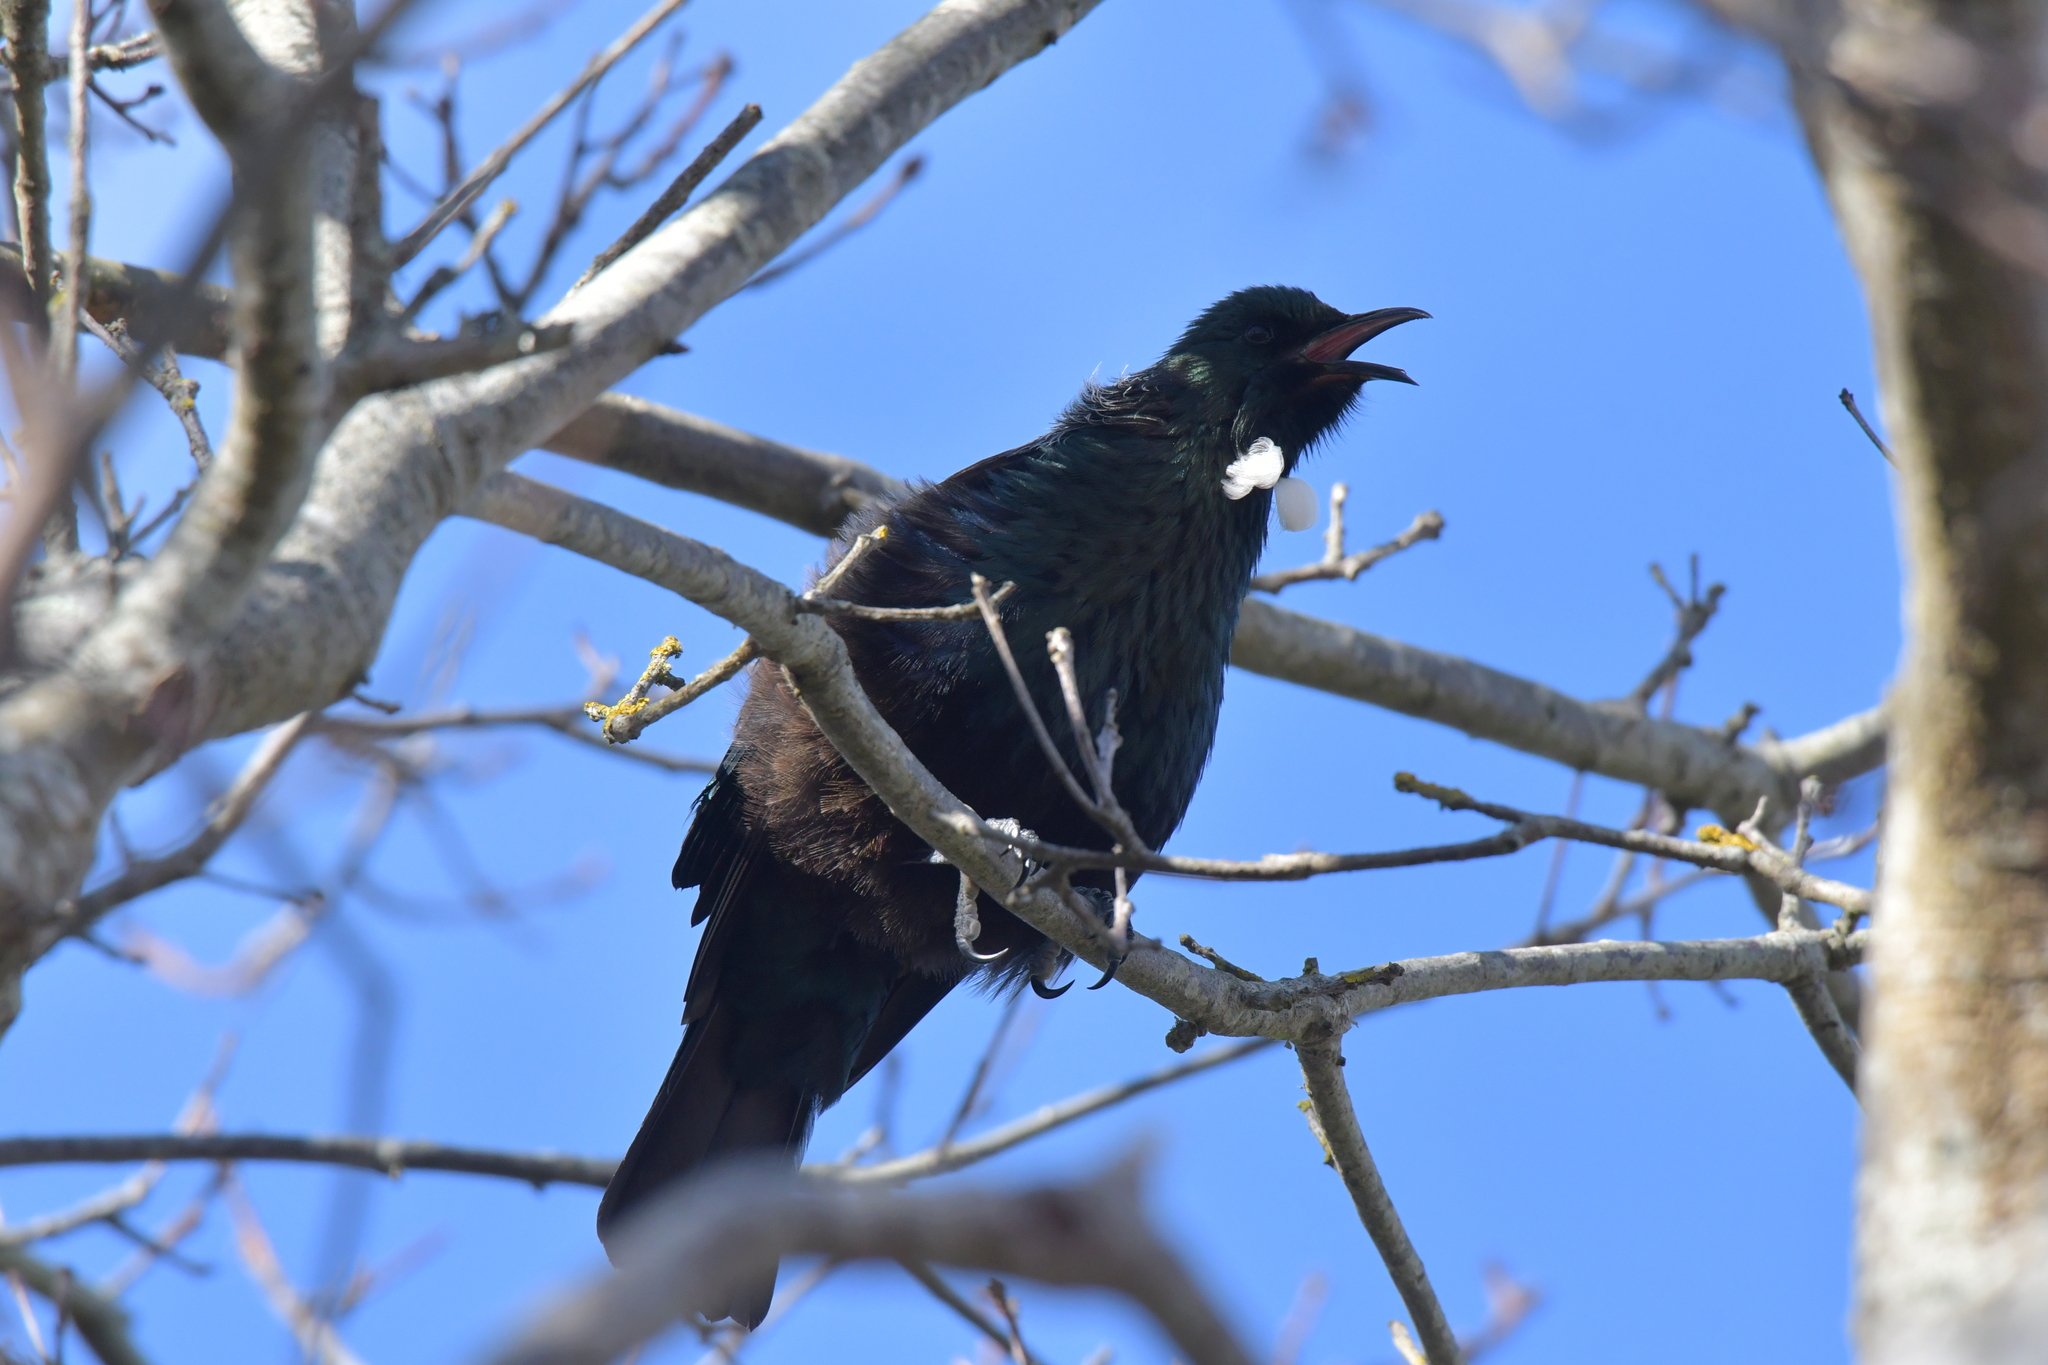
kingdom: Animalia
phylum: Chordata
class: Aves
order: Passeriformes
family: Meliphagidae
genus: Prosthemadera
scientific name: Prosthemadera novaeseelandiae
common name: Tui
